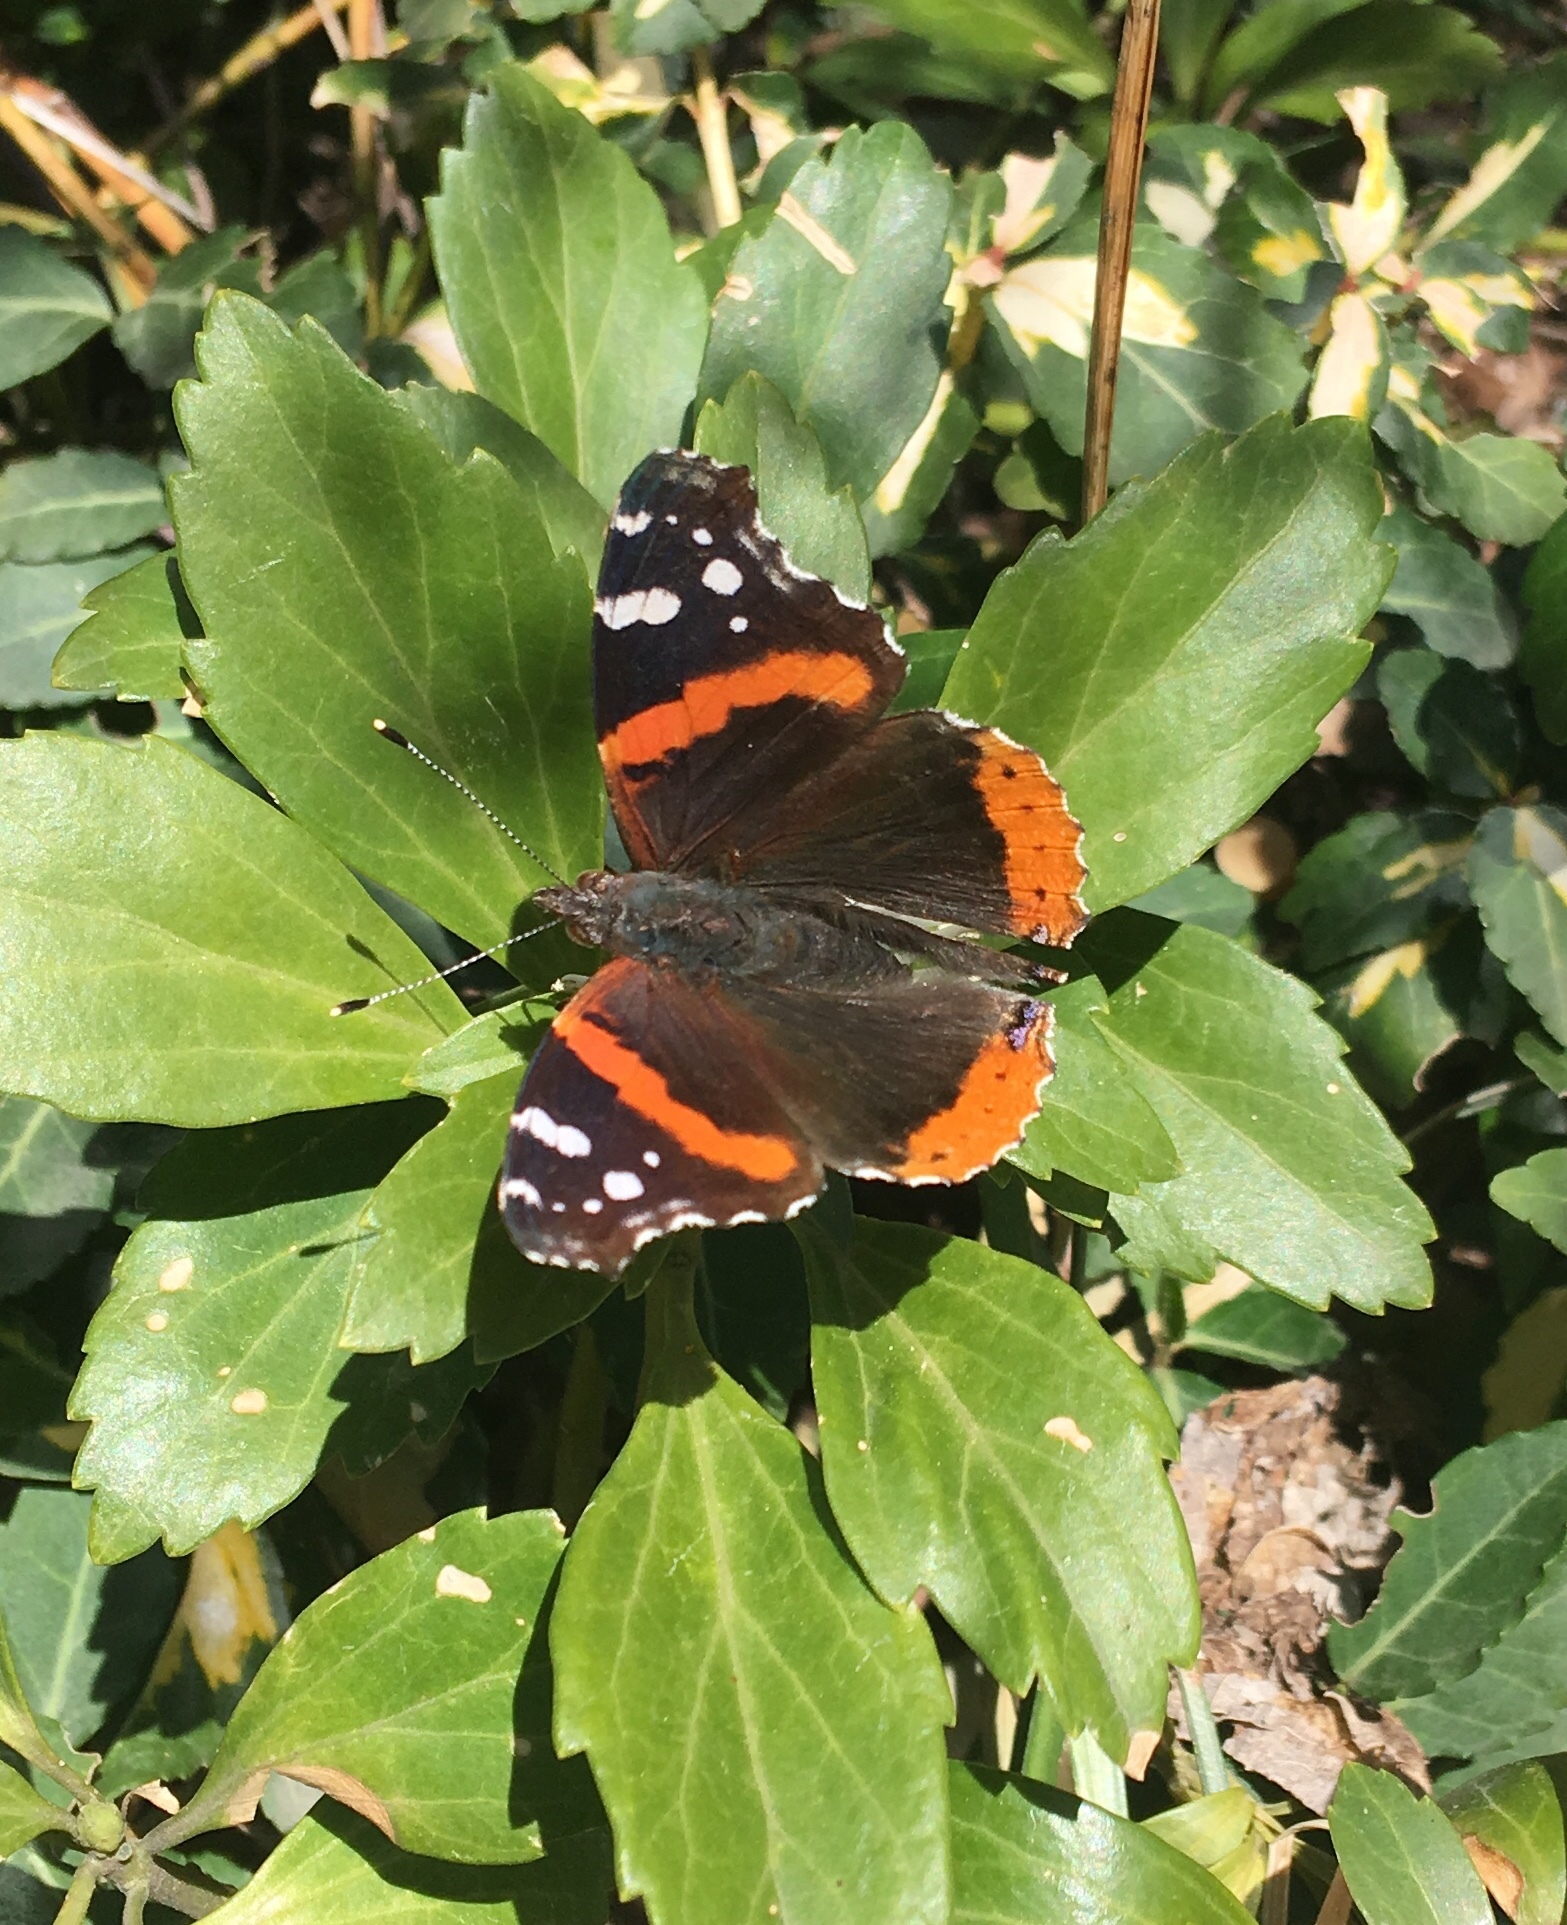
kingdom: Animalia
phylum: Arthropoda
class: Insecta
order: Lepidoptera
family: Nymphalidae
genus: Vanessa
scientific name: Vanessa atalanta
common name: Red admiral
